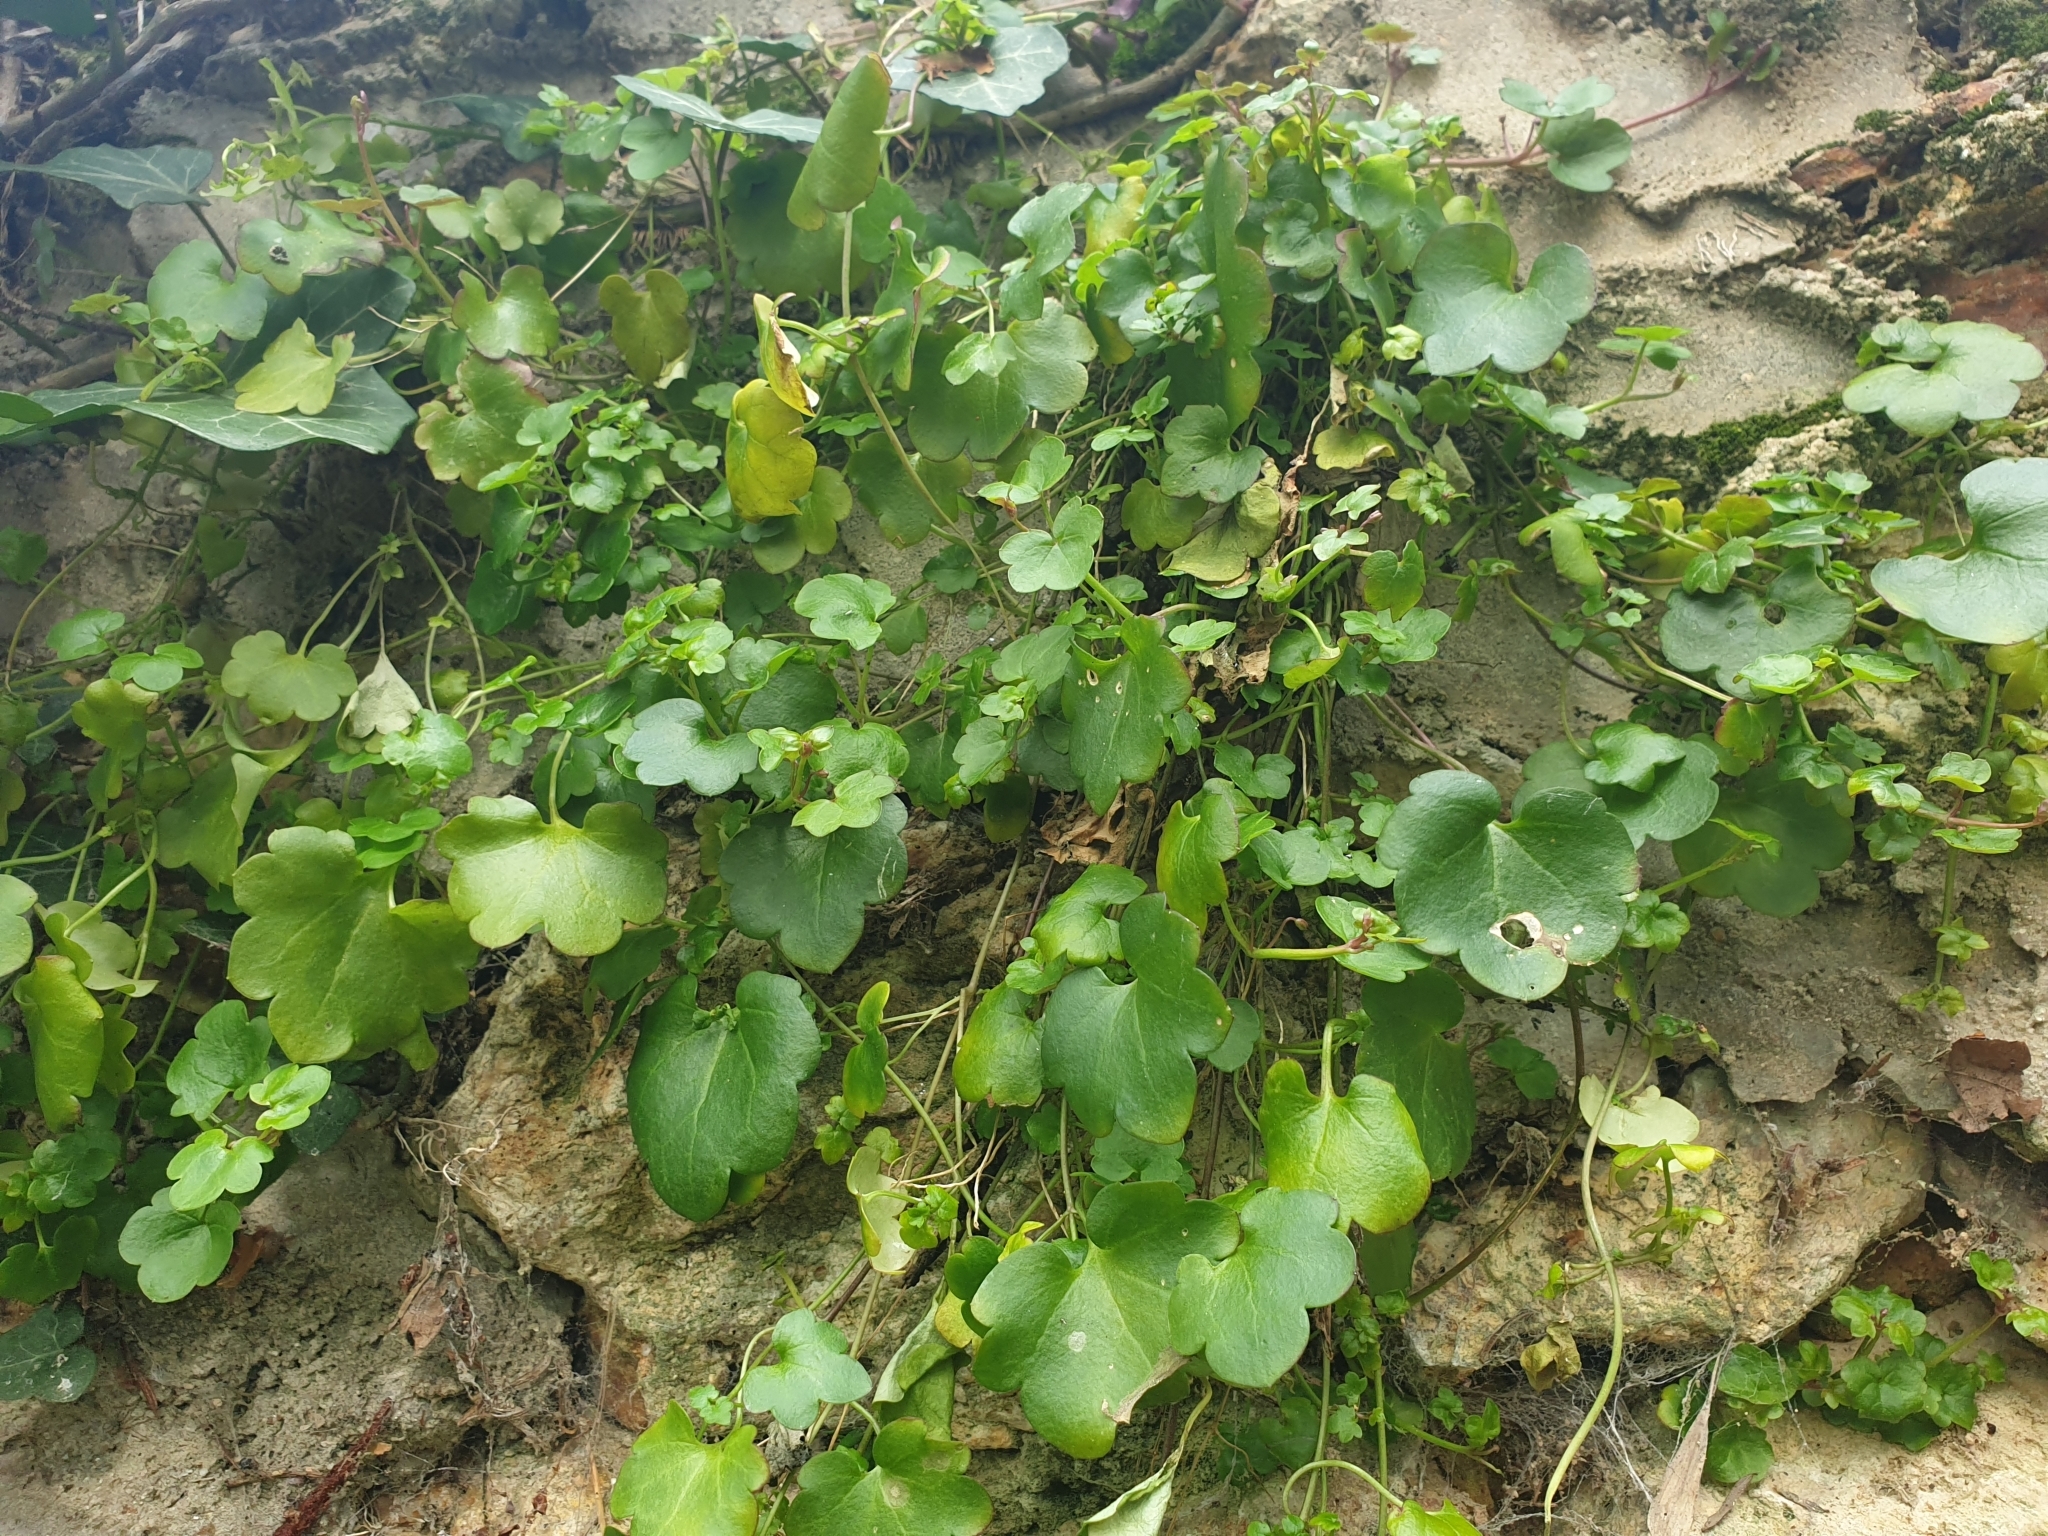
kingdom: Plantae
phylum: Tracheophyta
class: Magnoliopsida
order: Lamiales
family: Plantaginaceae
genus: Cymbalaria
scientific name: Cymbalaria muralis
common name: Ivy-leaved toadflax
